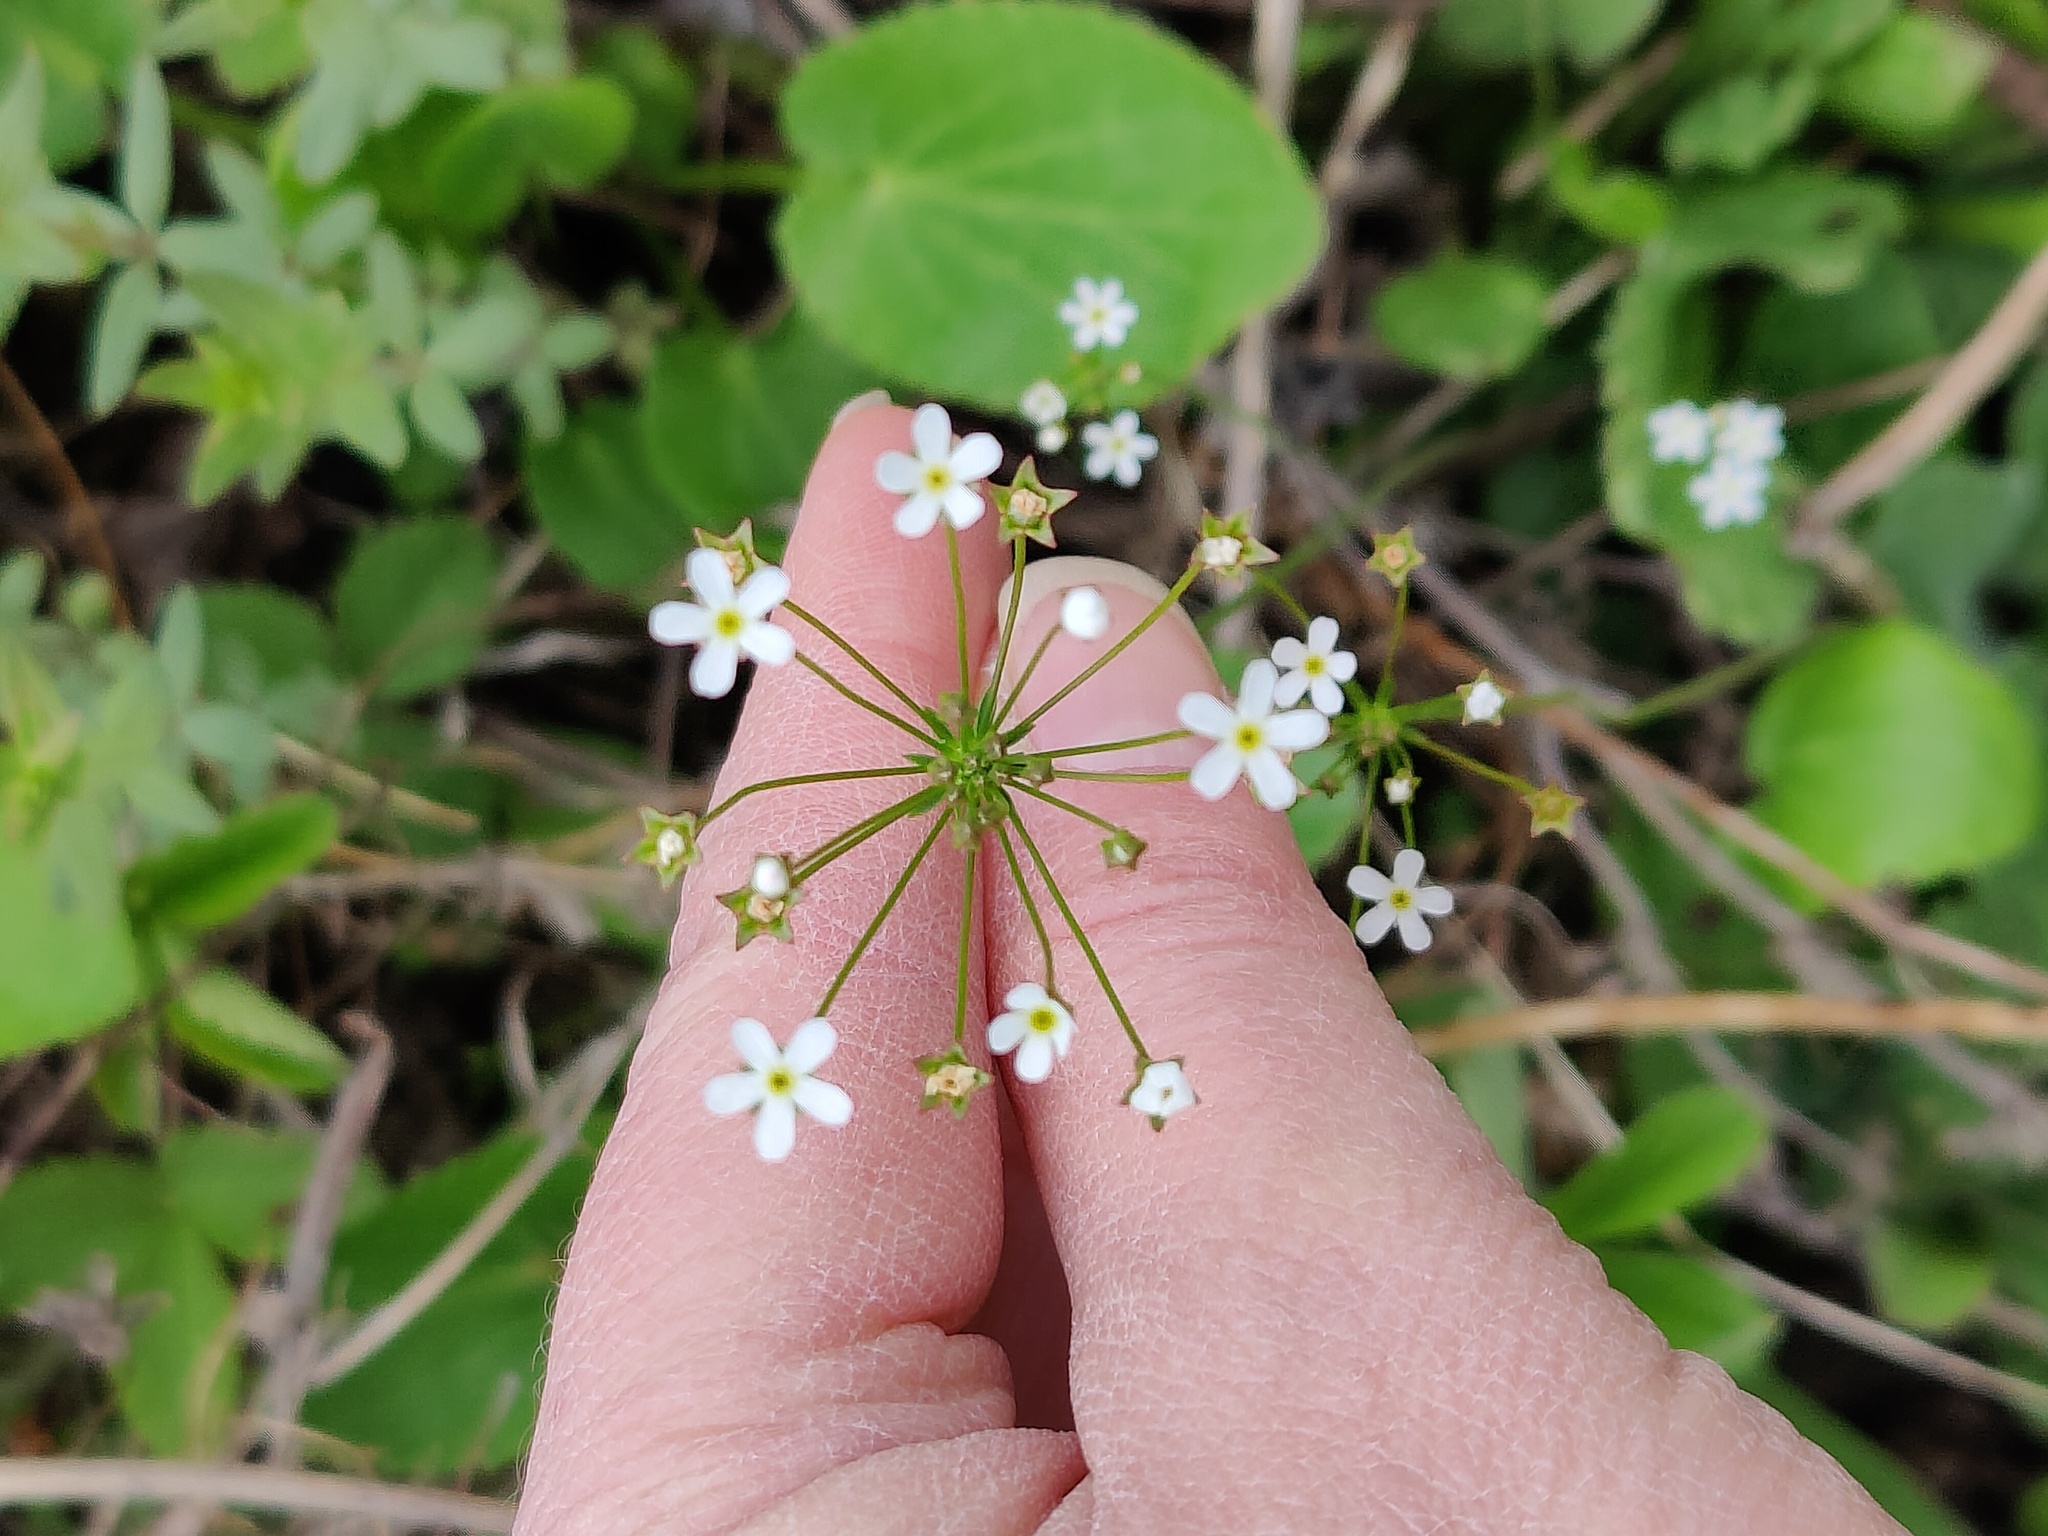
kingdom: Plantae
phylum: Tracheophyta
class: Magnoliopsida
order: Ericales
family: Primulaceae
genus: Androsace
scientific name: Androsace septentrionalis
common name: Hairy northern fairy-candelabra
